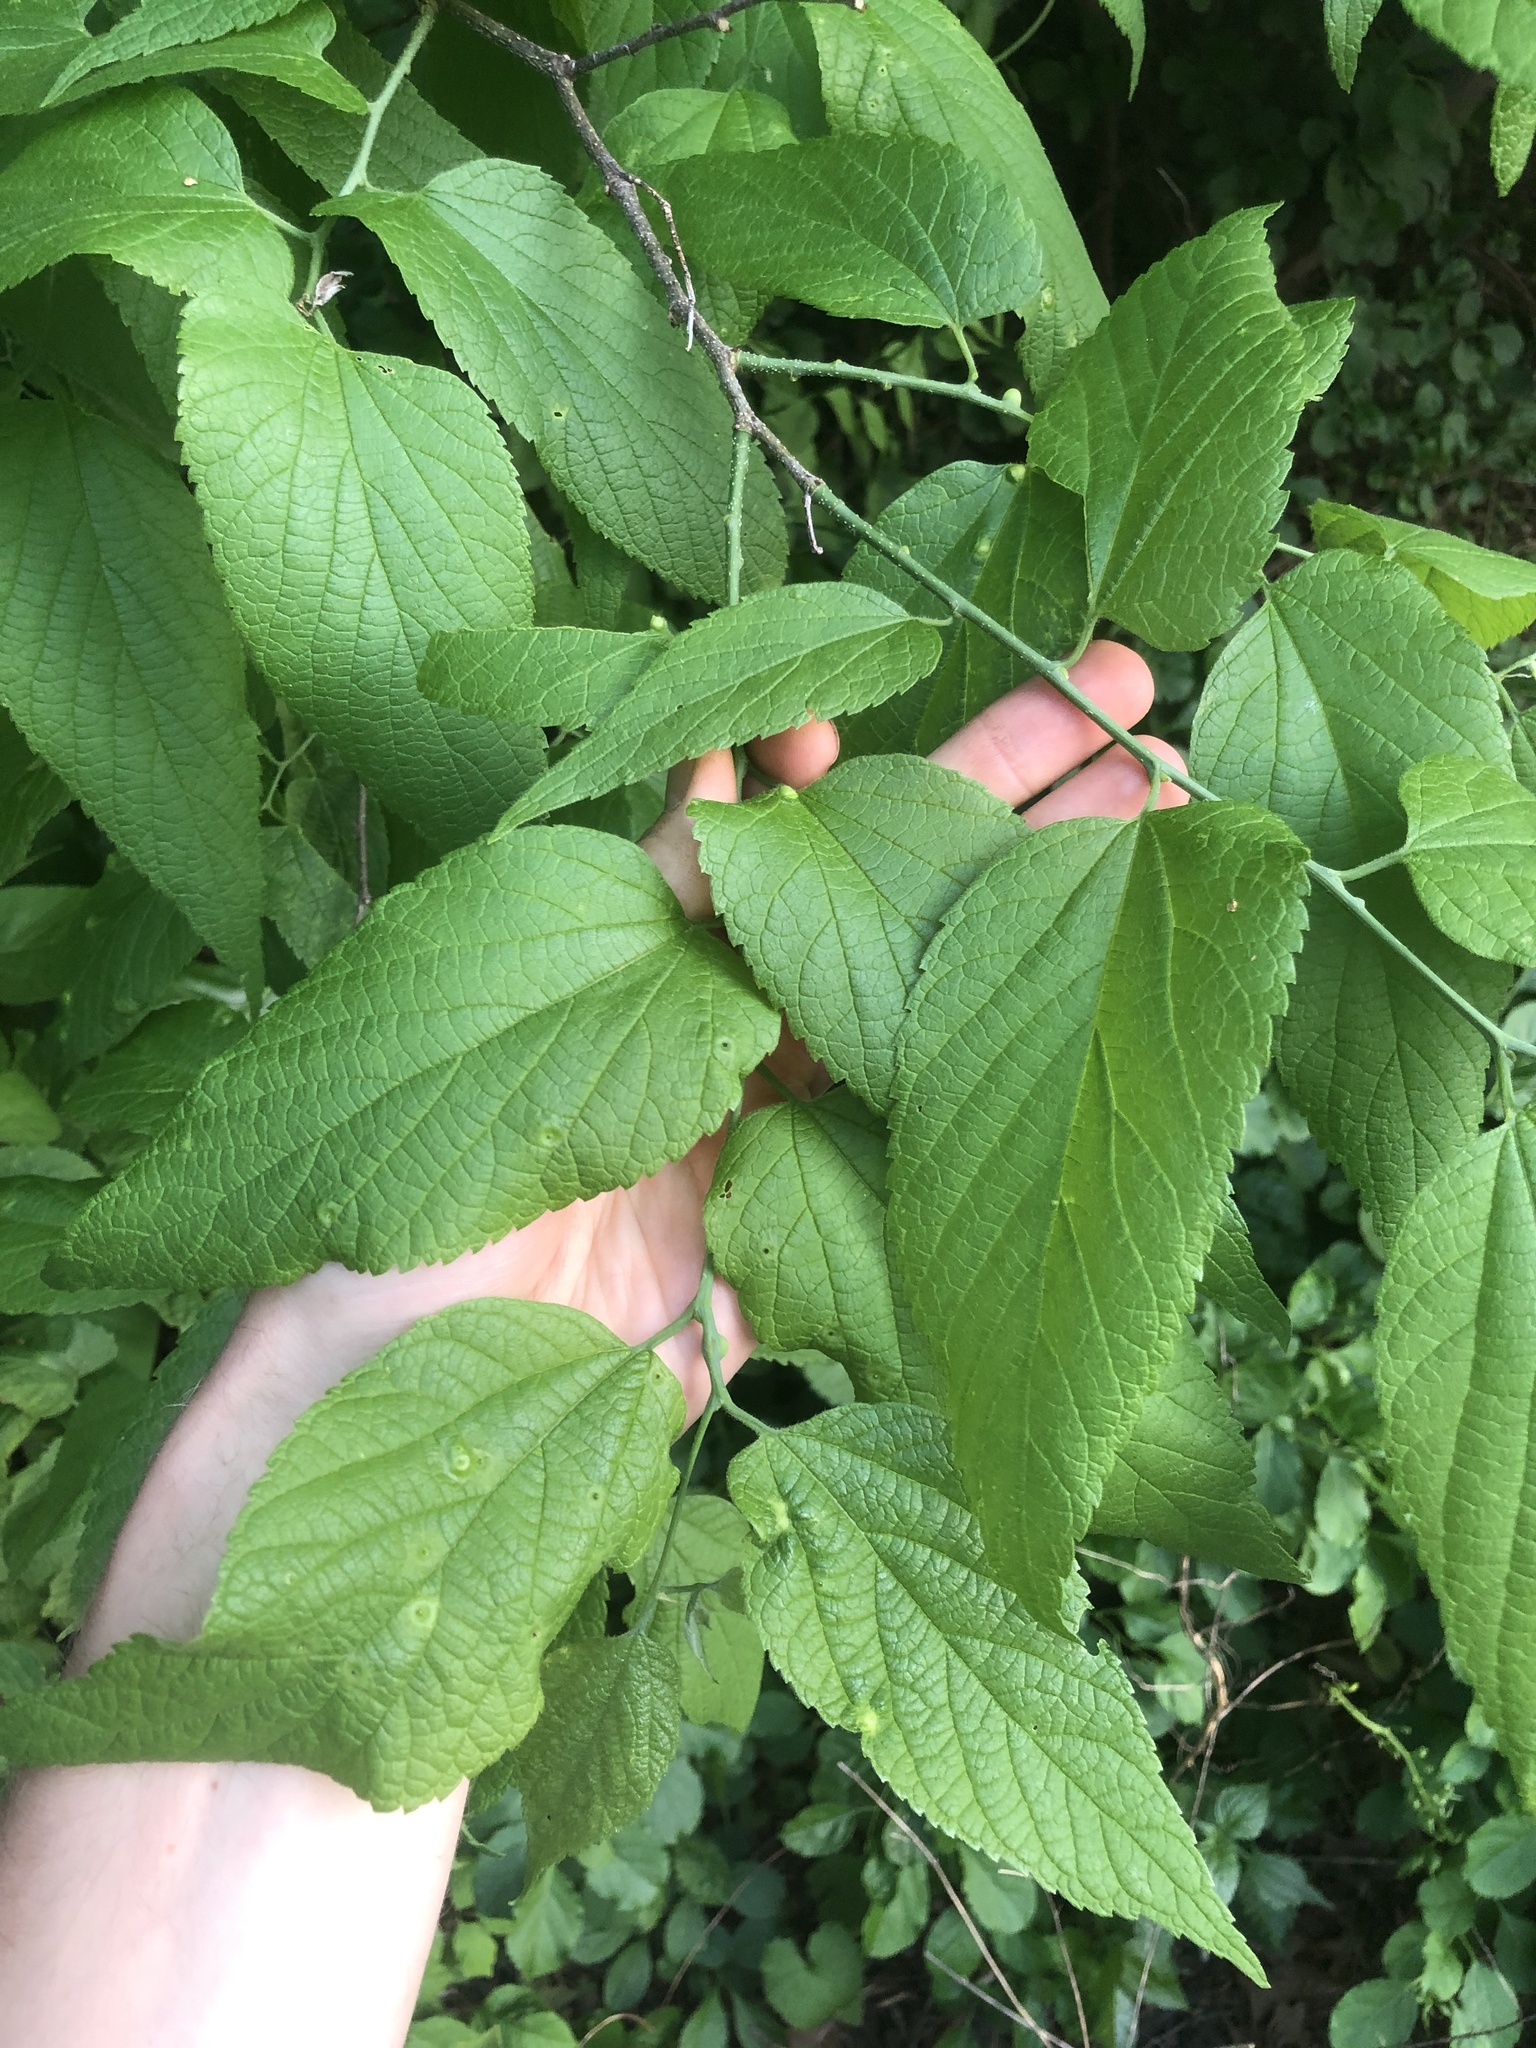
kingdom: Plantae
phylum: Tracheophyta
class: Magnoliopsida
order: Rosales
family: Cannabaceae
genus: Celtis
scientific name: Celtis occidentalis
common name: Common hackberry
